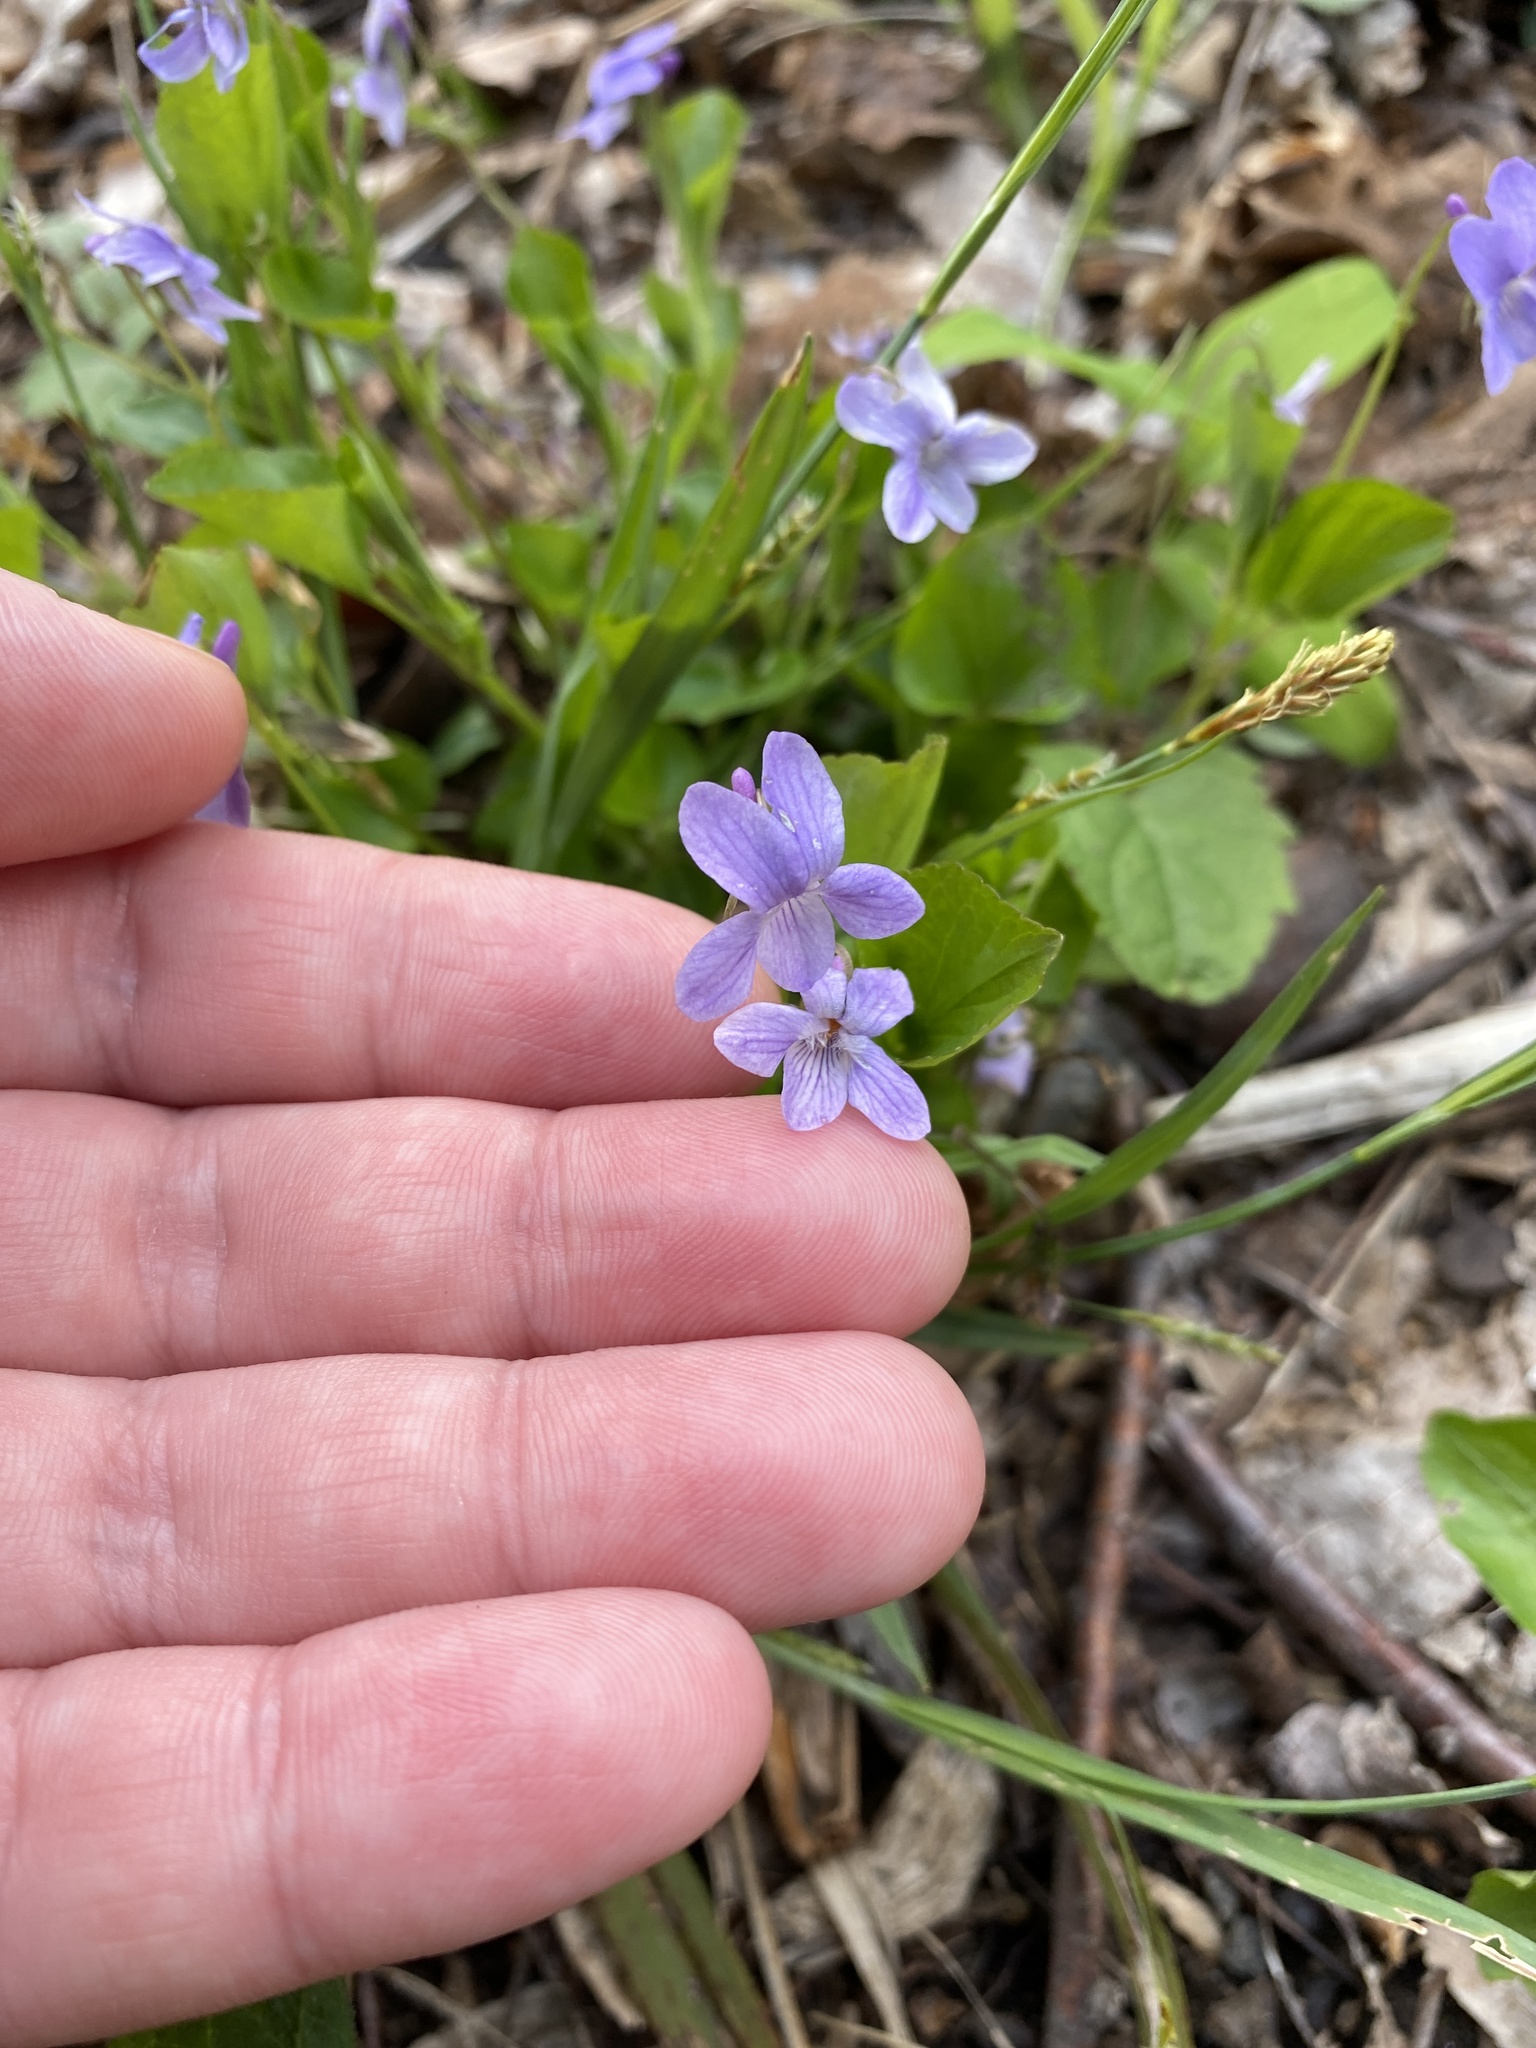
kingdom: Plantae
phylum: Tracheophyta
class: Magnoliopsida
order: Malpighiales
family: Violaceae
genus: Viola
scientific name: Viola labradorica
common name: Labrador violet
